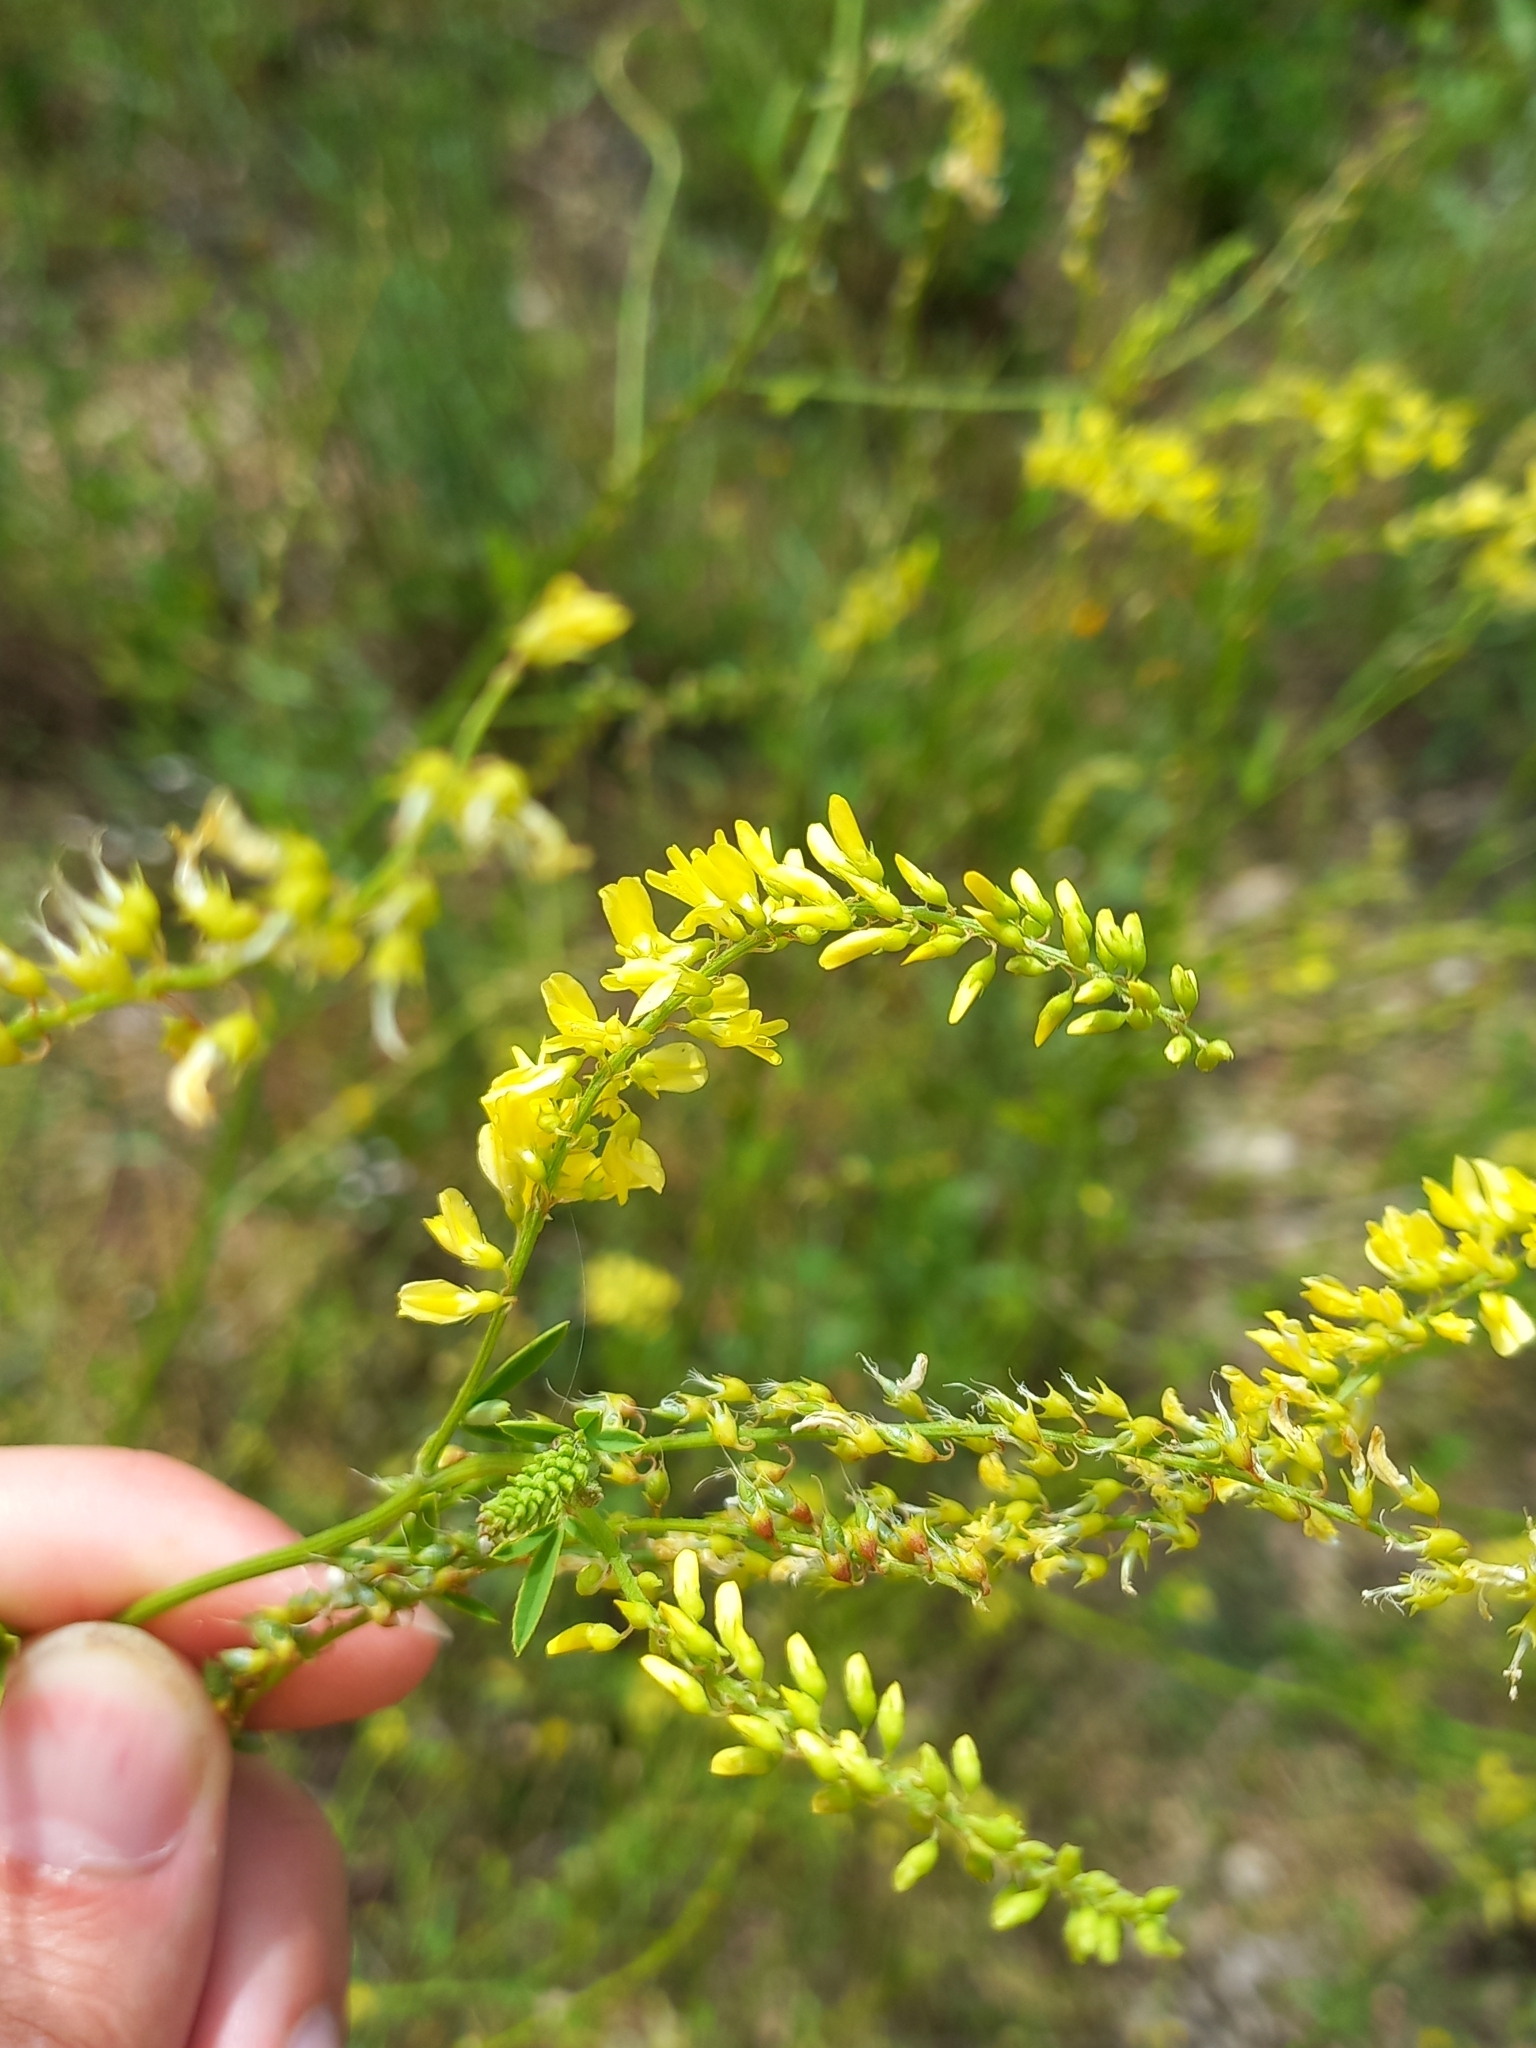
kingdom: Plantae
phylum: Tracheophyta
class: Magnoliopsida
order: Fabales
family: Fabaceae
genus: Melilotus
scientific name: Melilotus officinalis
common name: Sweetclover
